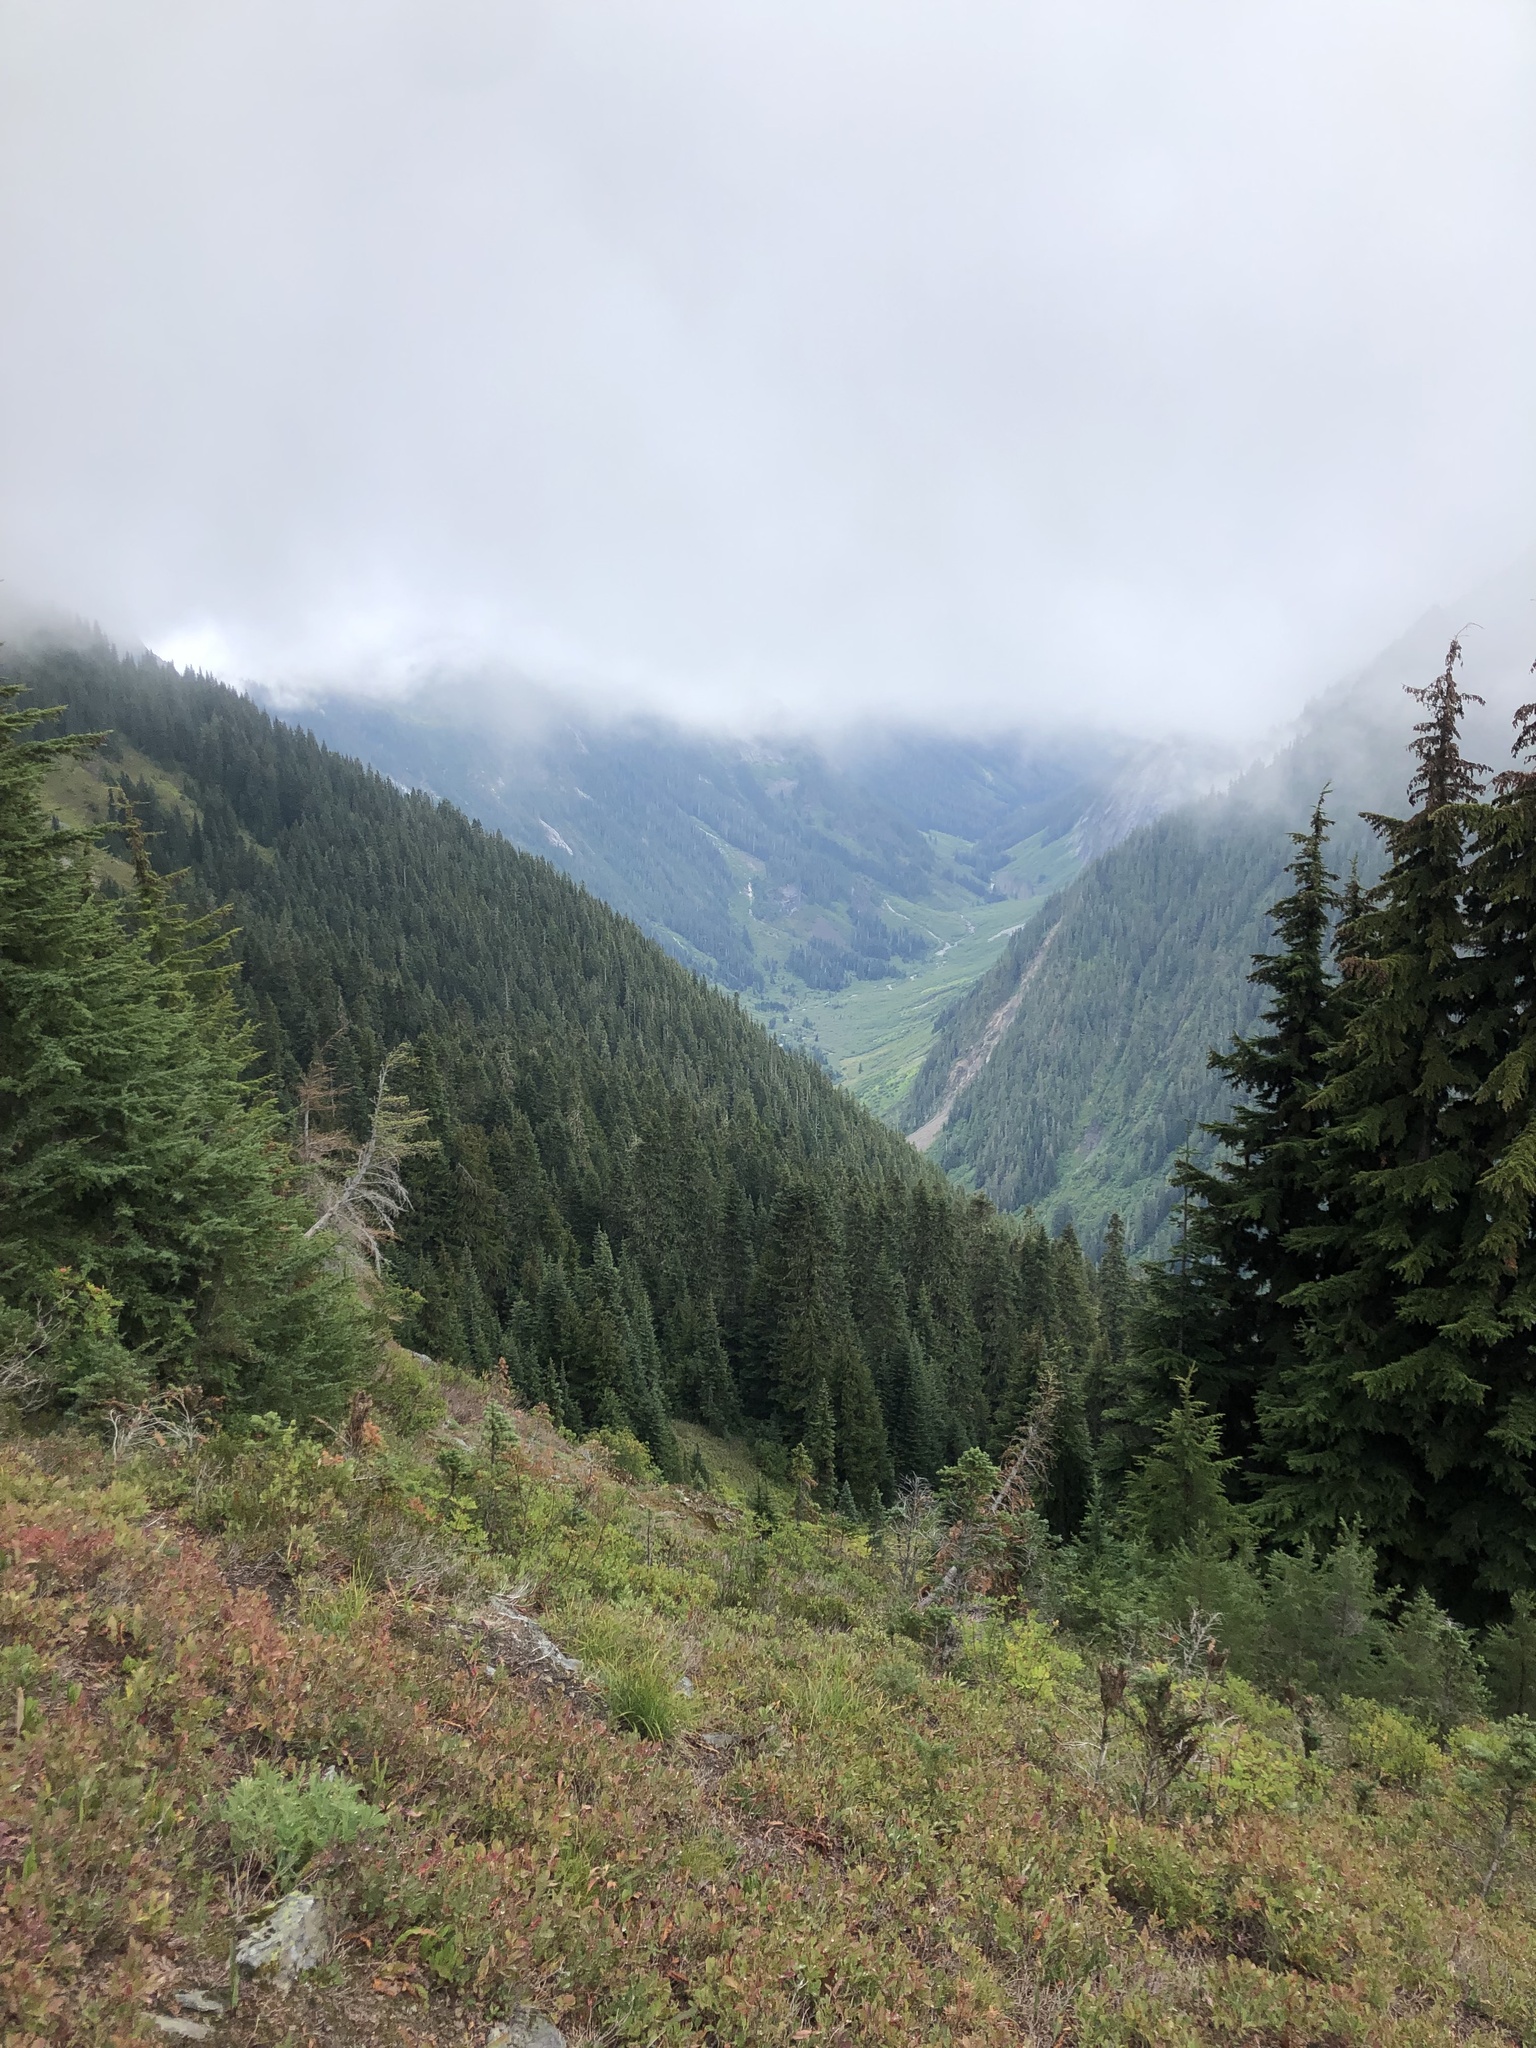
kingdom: Plantae
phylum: Tracheophyta
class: Pinopsida
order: Pinales
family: Pinaceae
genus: Tsuga
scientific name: Tsuga mertensiana
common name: Mountain hemlock
